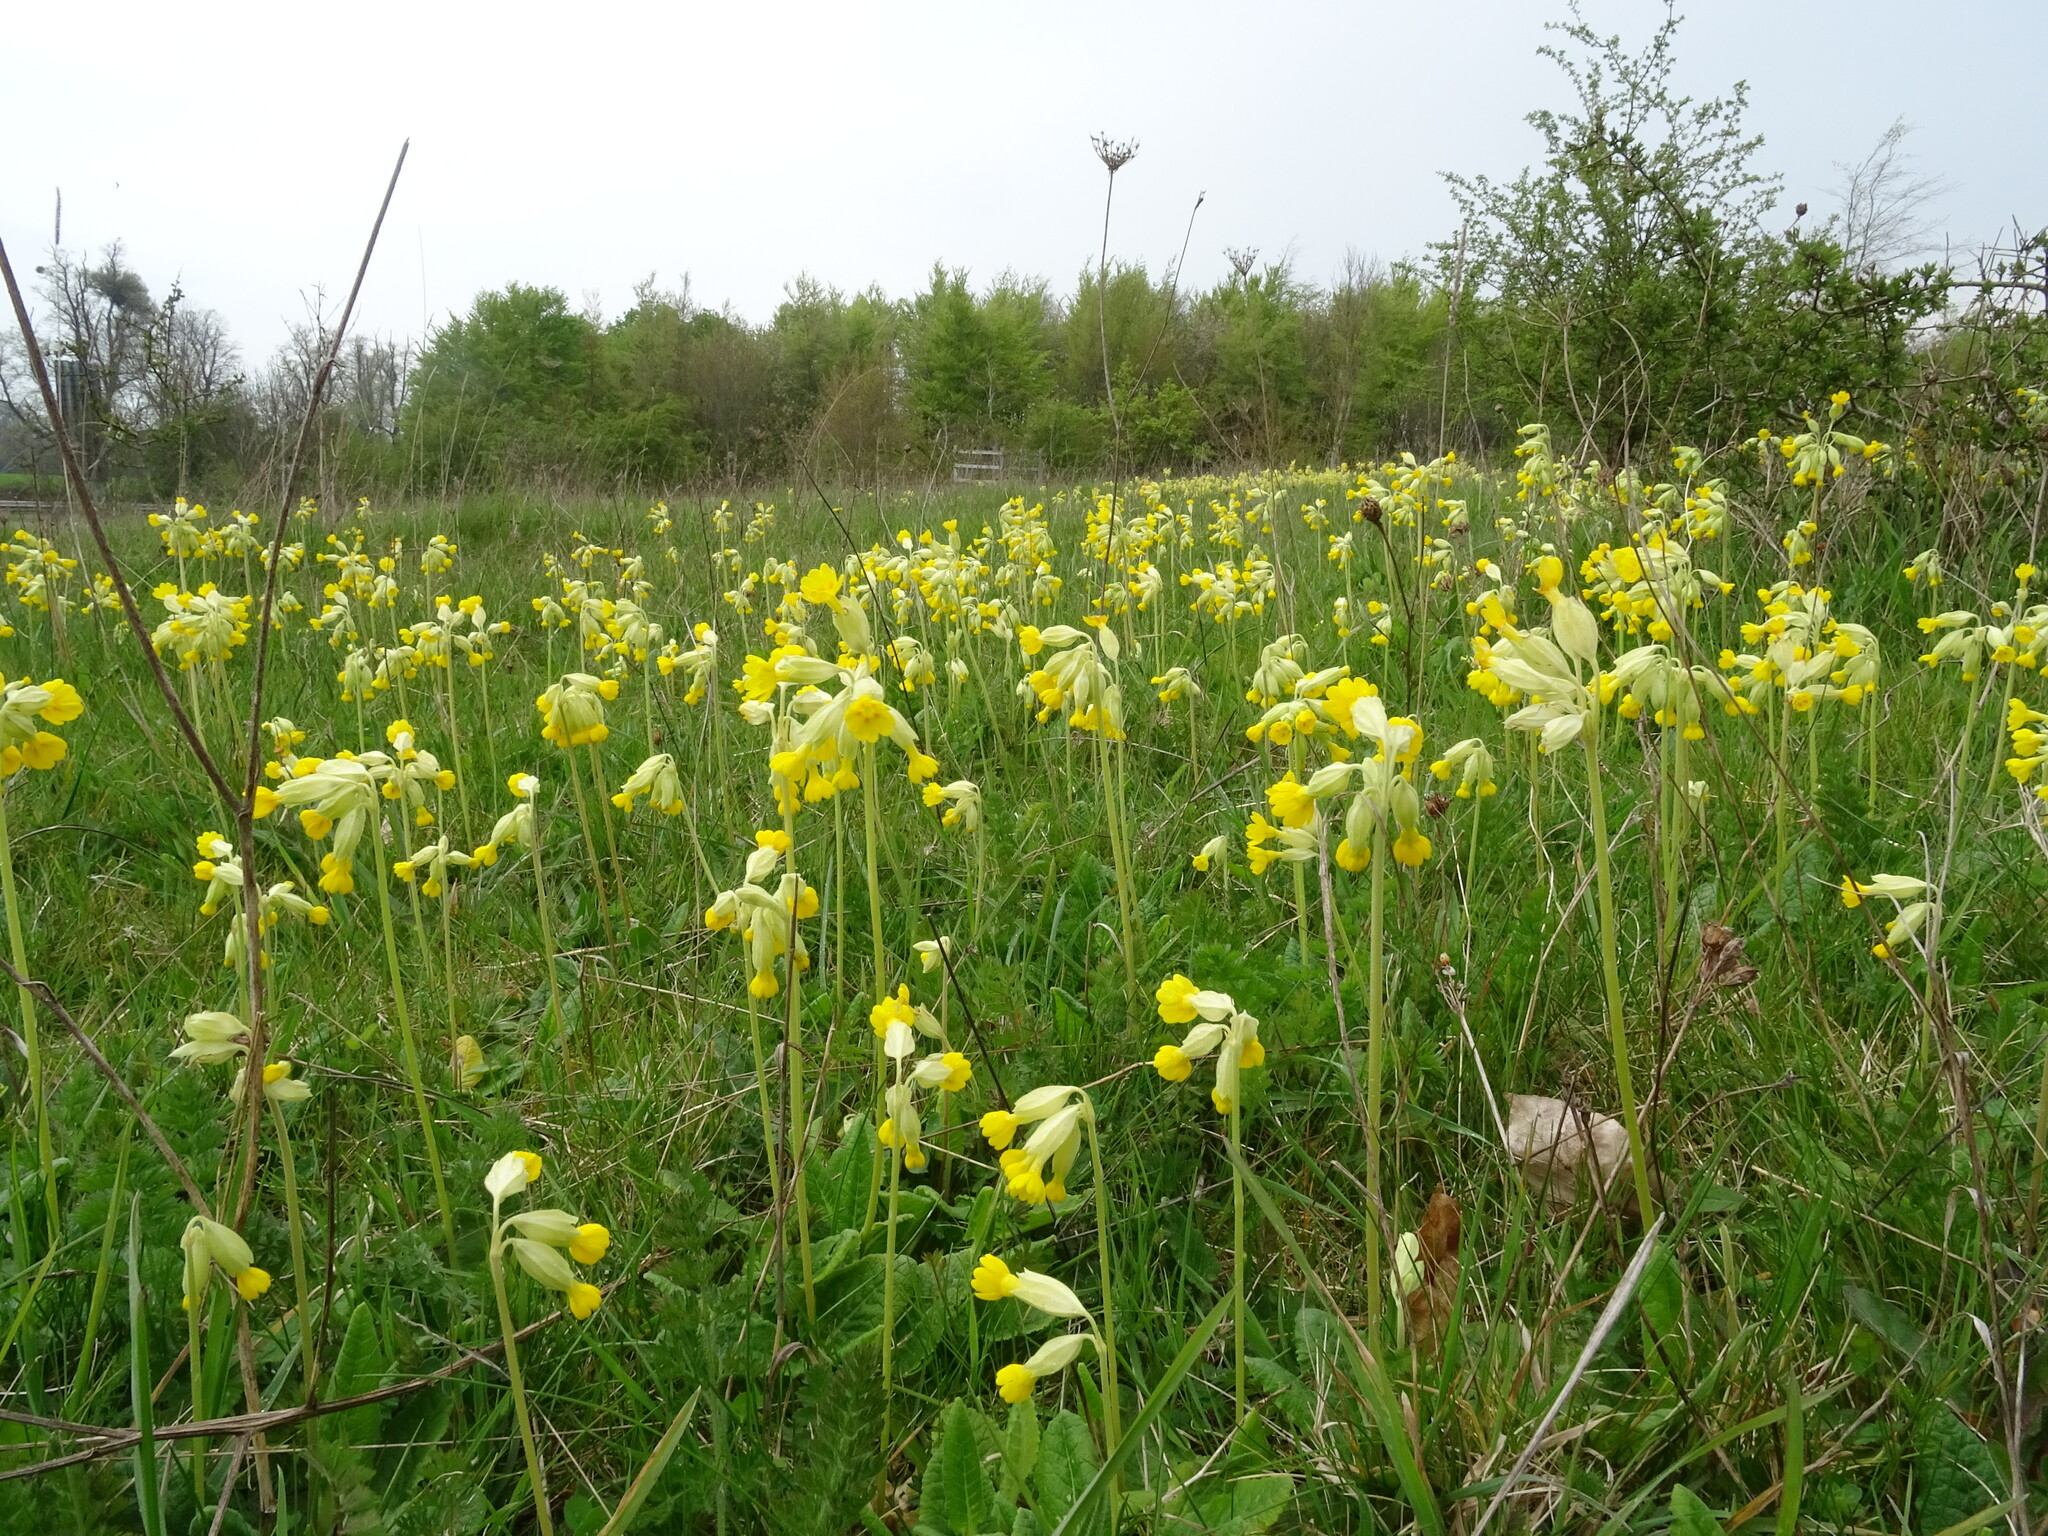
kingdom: Plantae
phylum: Tracheophyta
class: Magnoliopsida
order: Ericales
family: Primulaceae
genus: Primula
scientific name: Primula veris
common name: Cowslip
